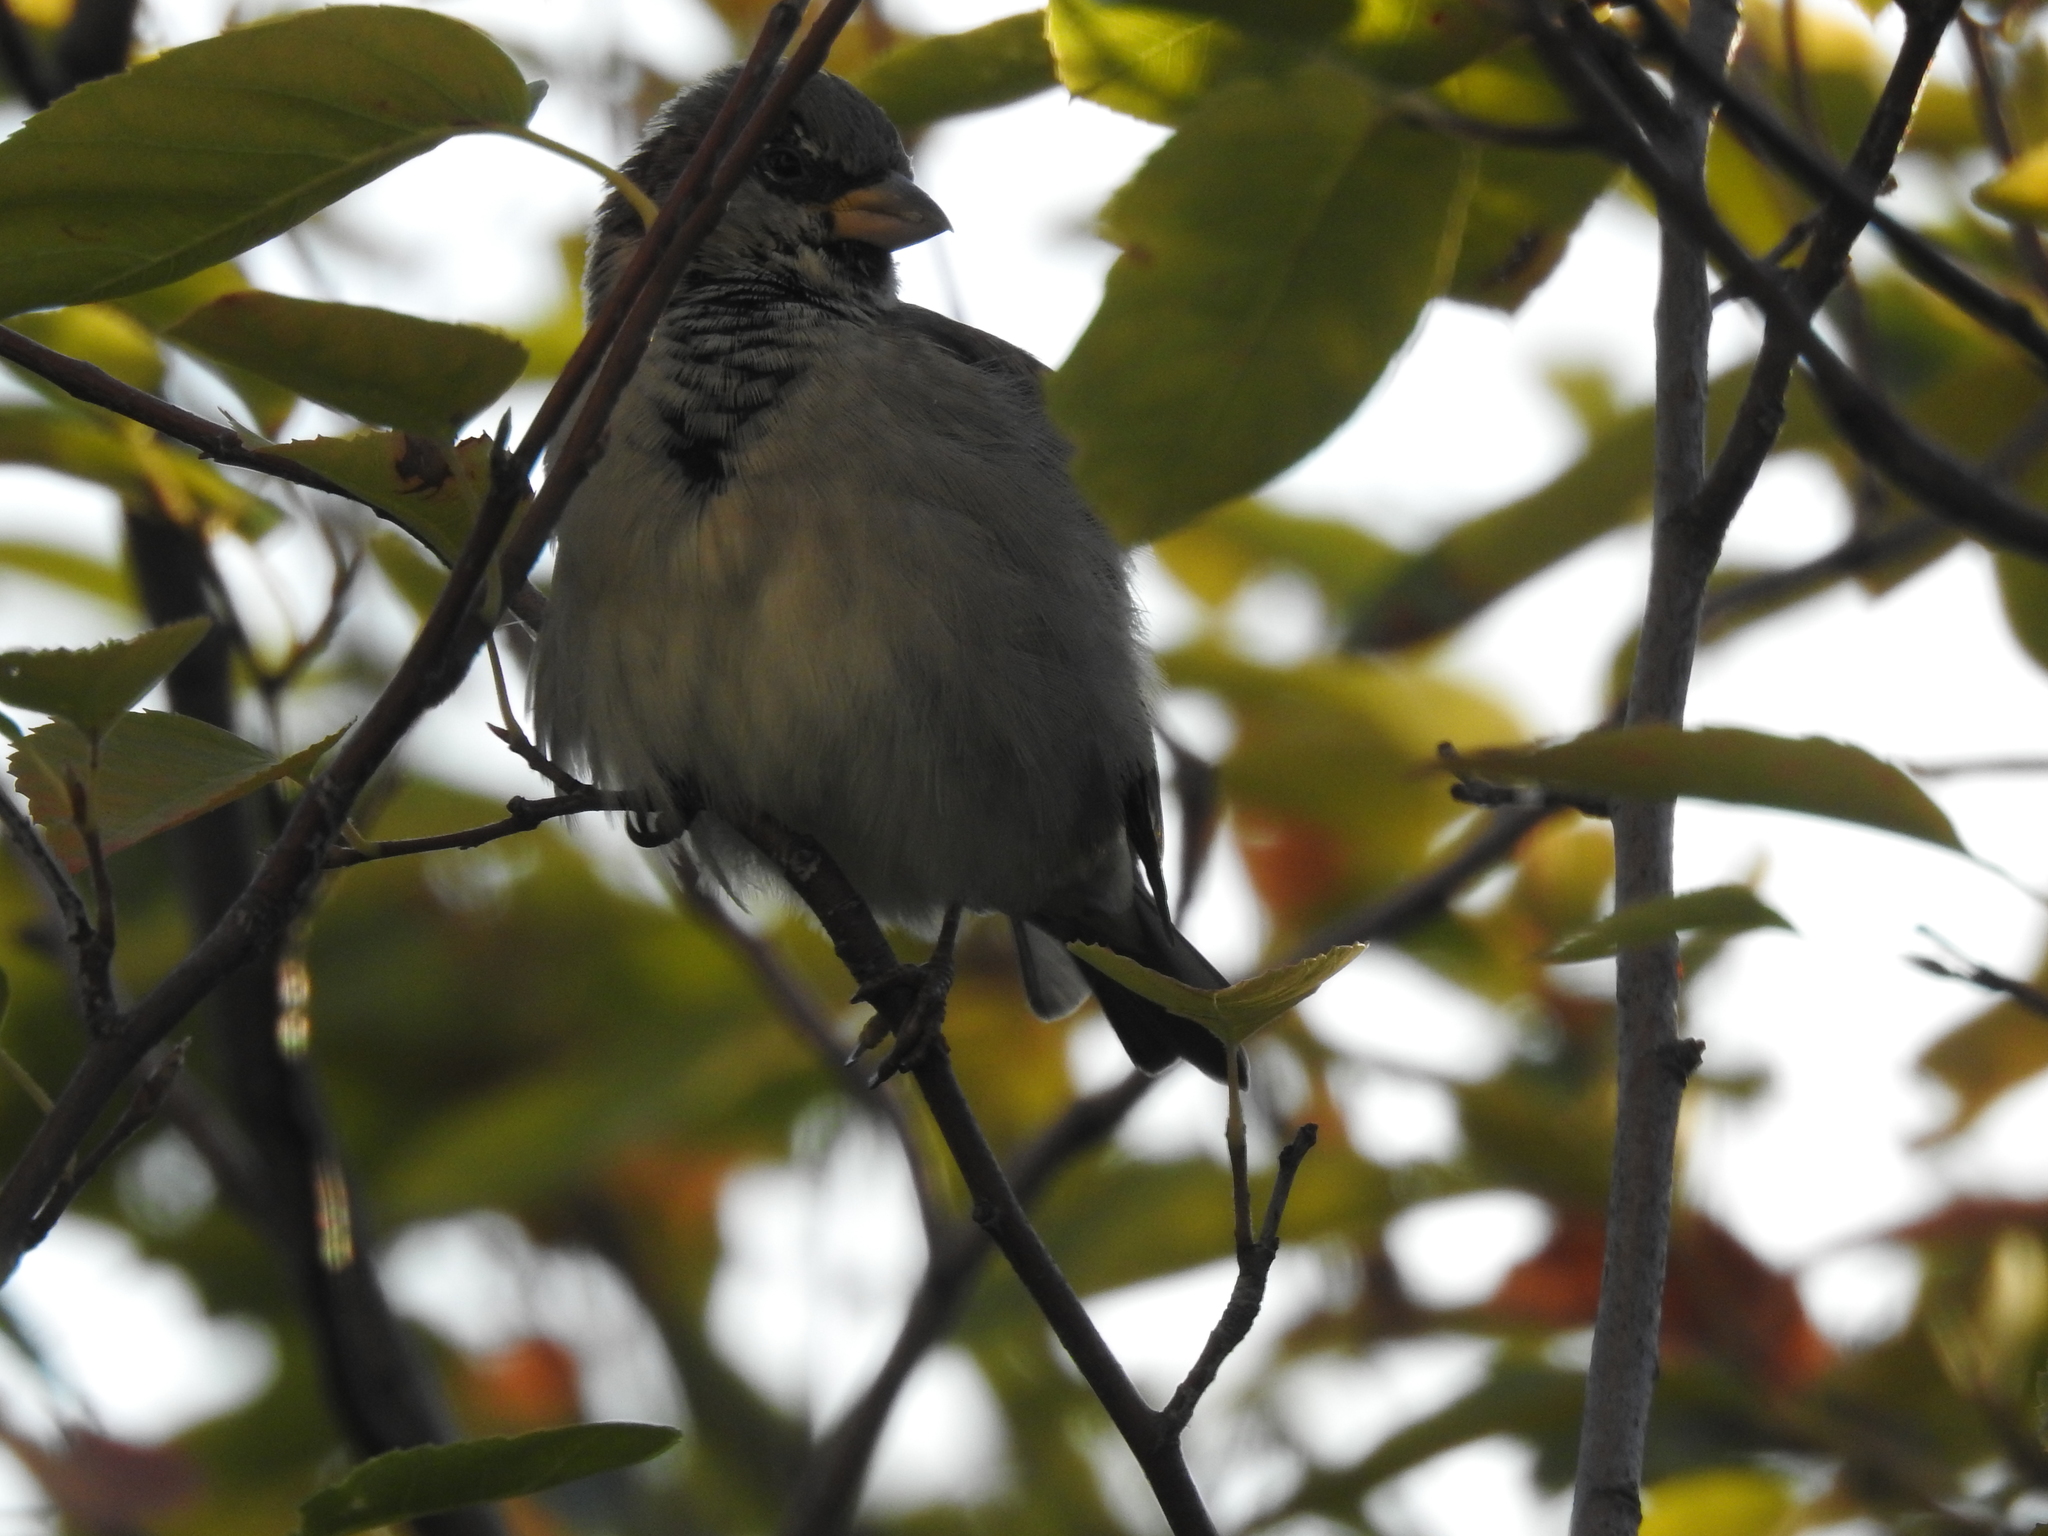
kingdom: Animalia
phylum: Chordata
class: Aves
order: Passeriformes
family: Passeridae
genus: Passer
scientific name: Passer domesticus
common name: House sparrow
